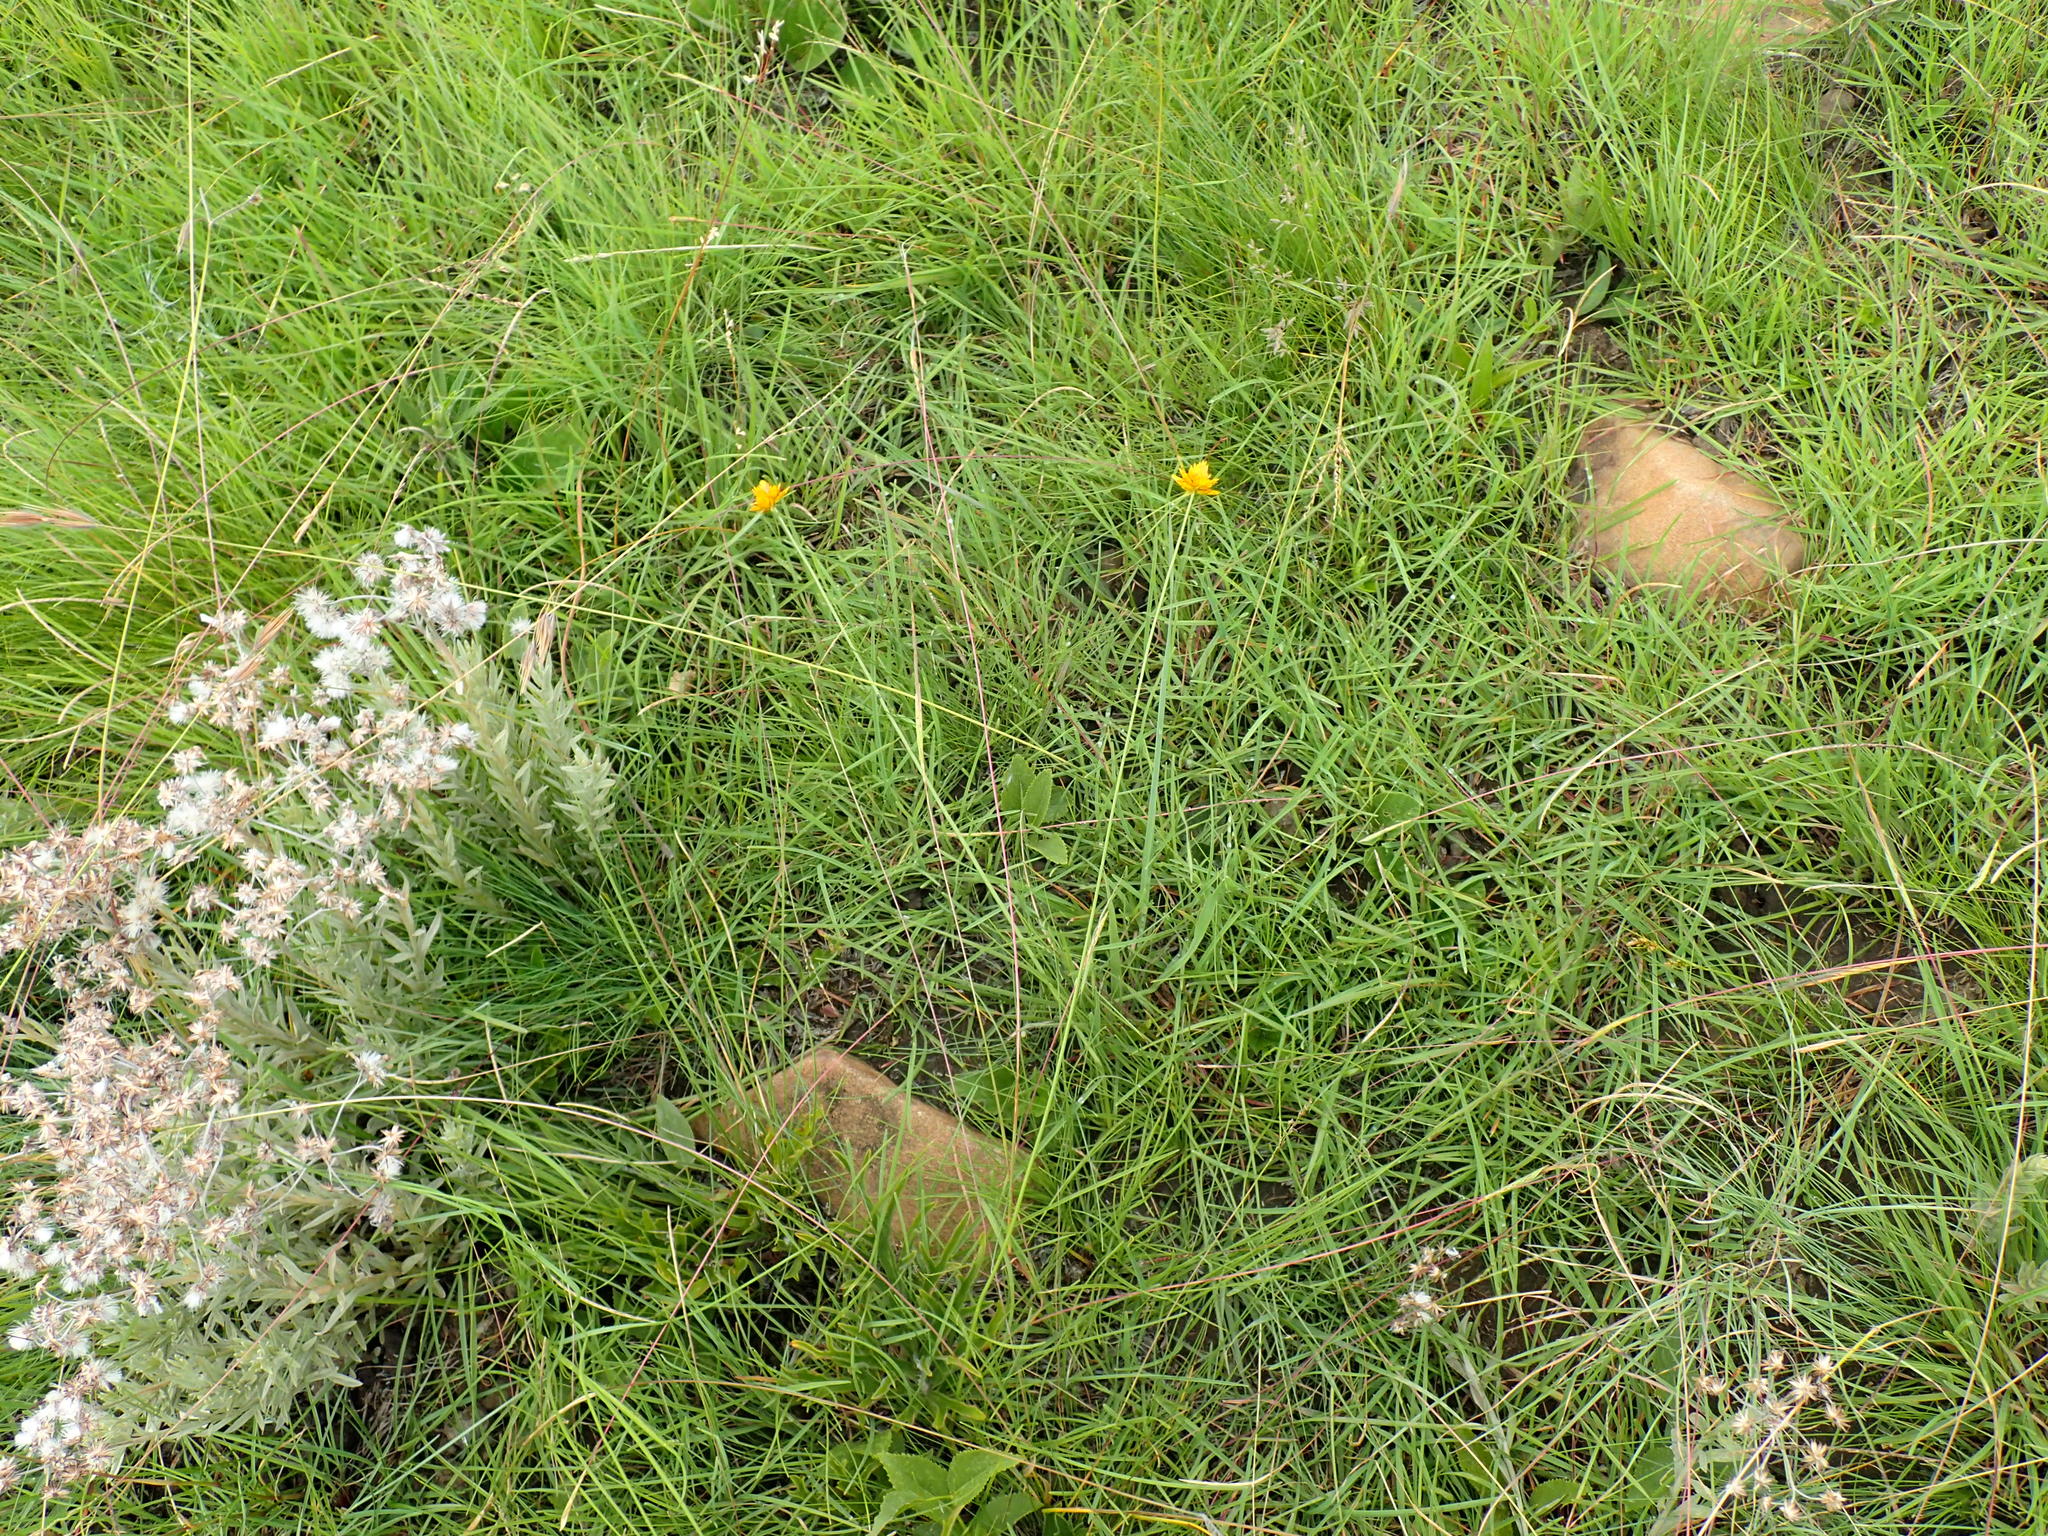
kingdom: Plantae
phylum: Tracheophyta
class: Liliopsida
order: Poales
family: Cyperaceae
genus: Cyperus
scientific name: Cyperus sphaerocephalus
